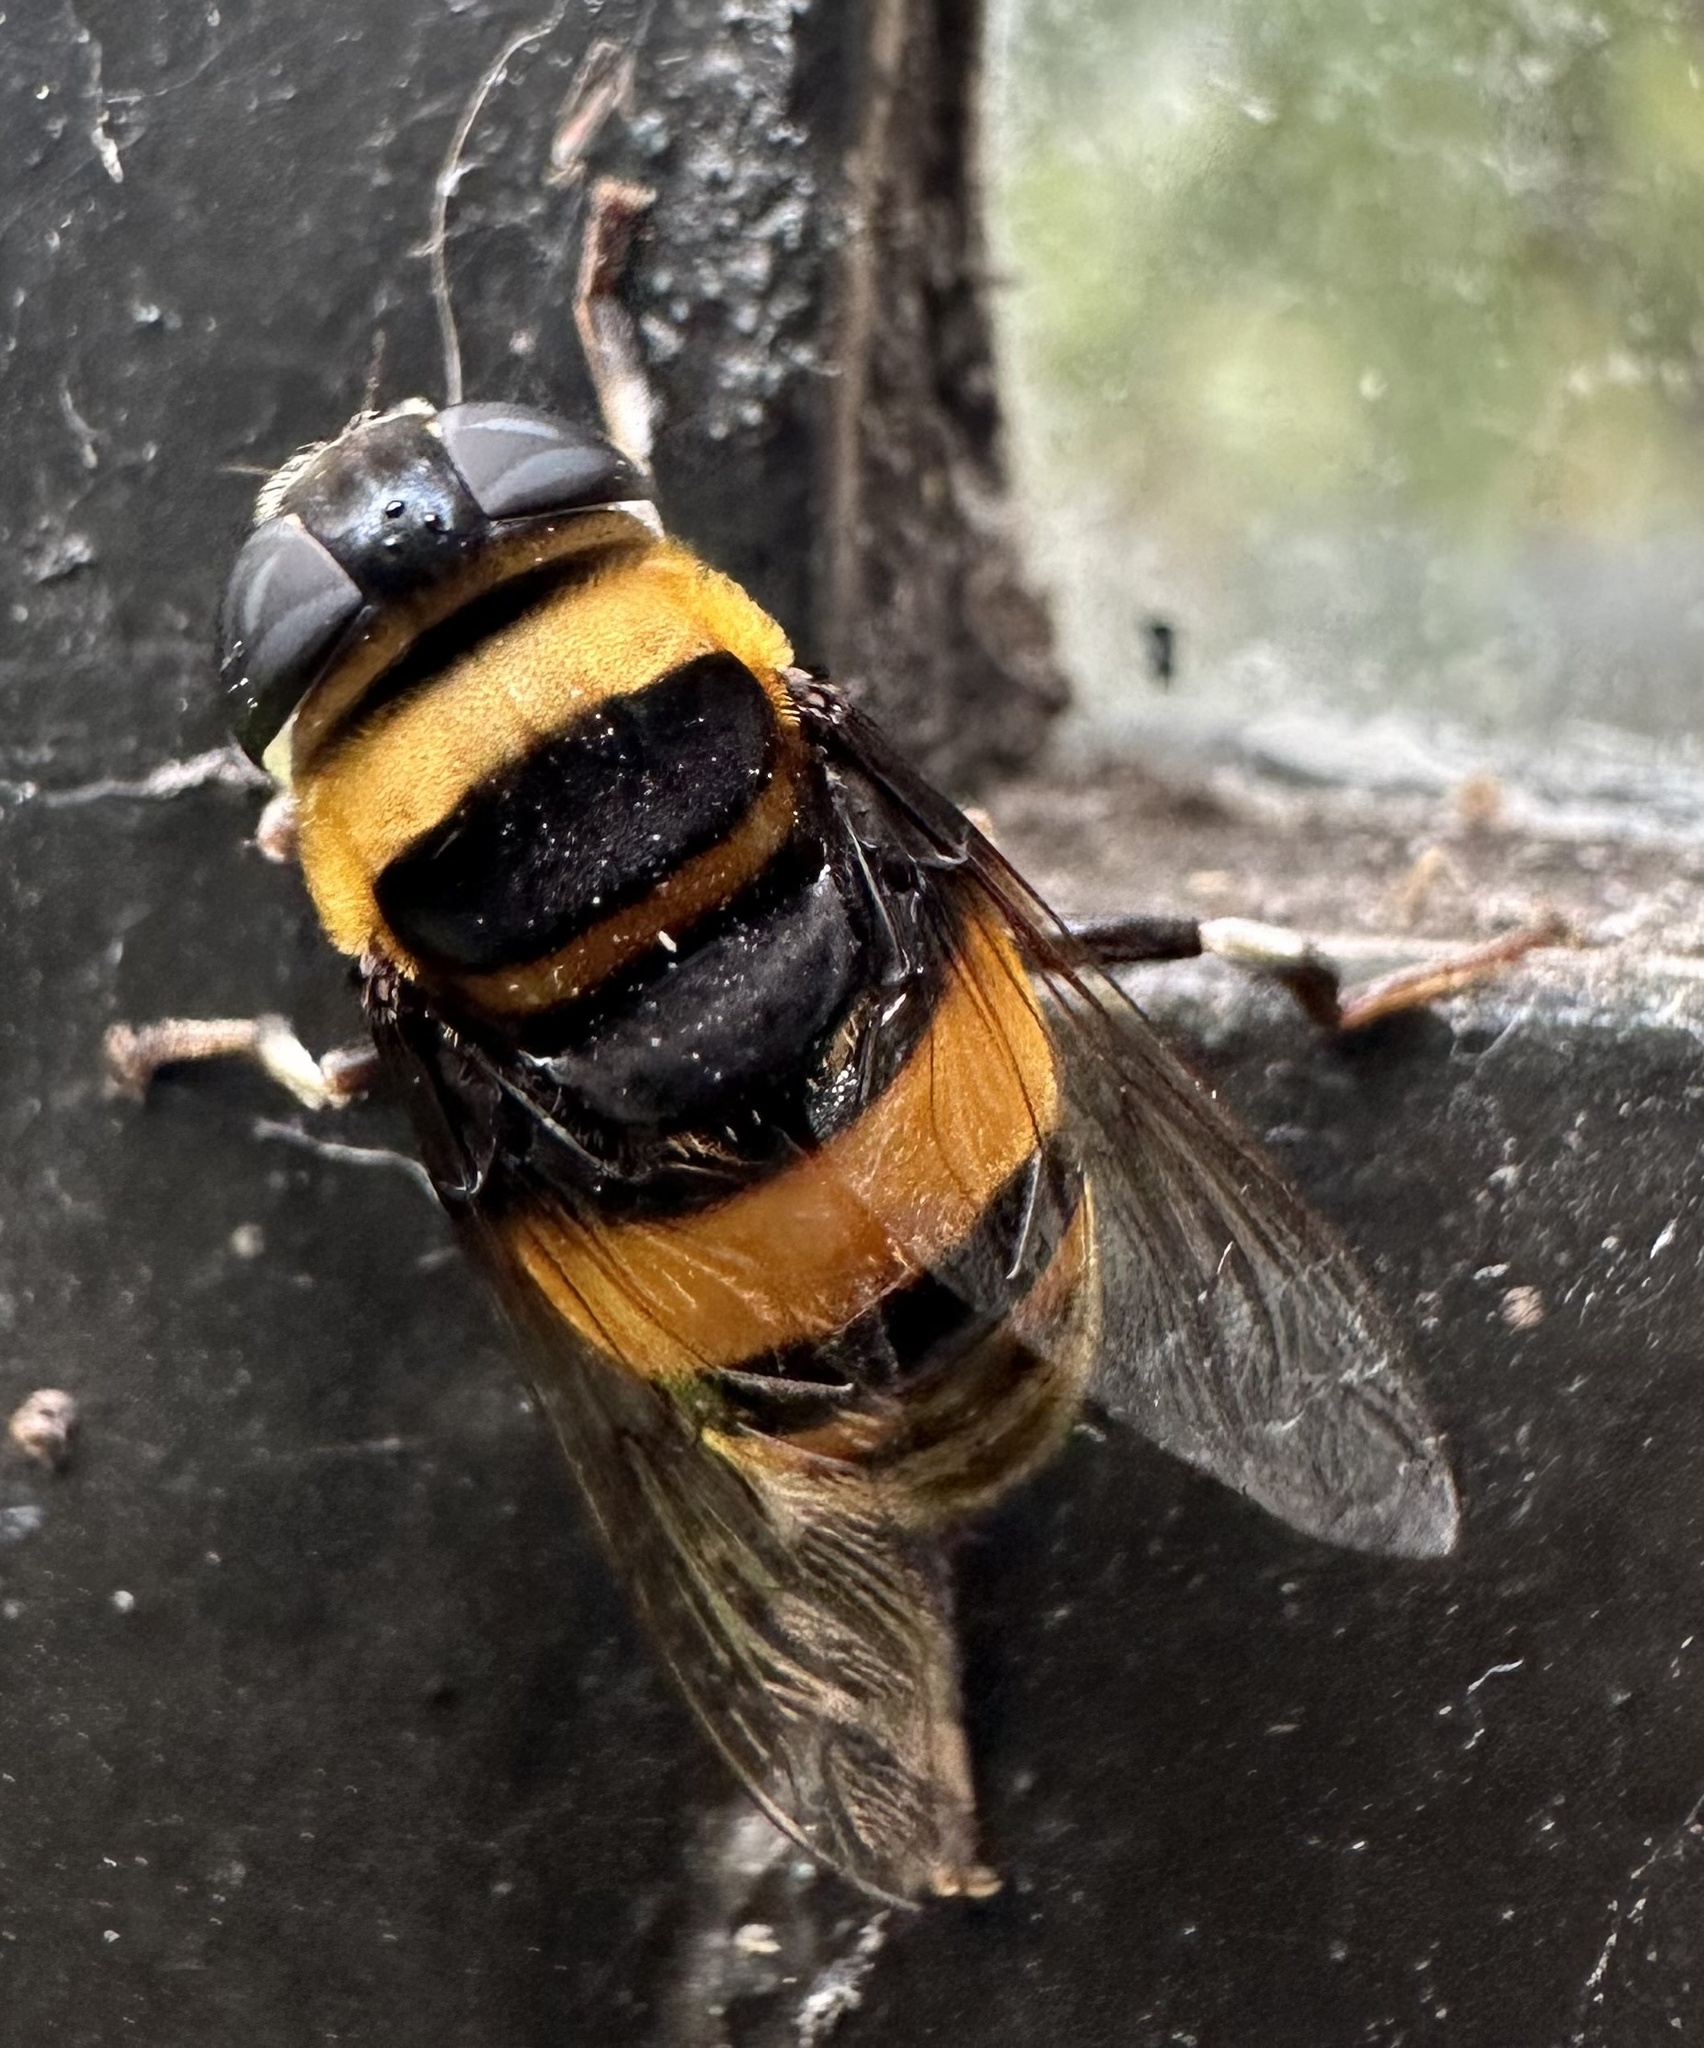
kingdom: Animalia
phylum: Arthropoda
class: Insecta
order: Diptera
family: Syrphidae
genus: Phytomia
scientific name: Phytomia curta
